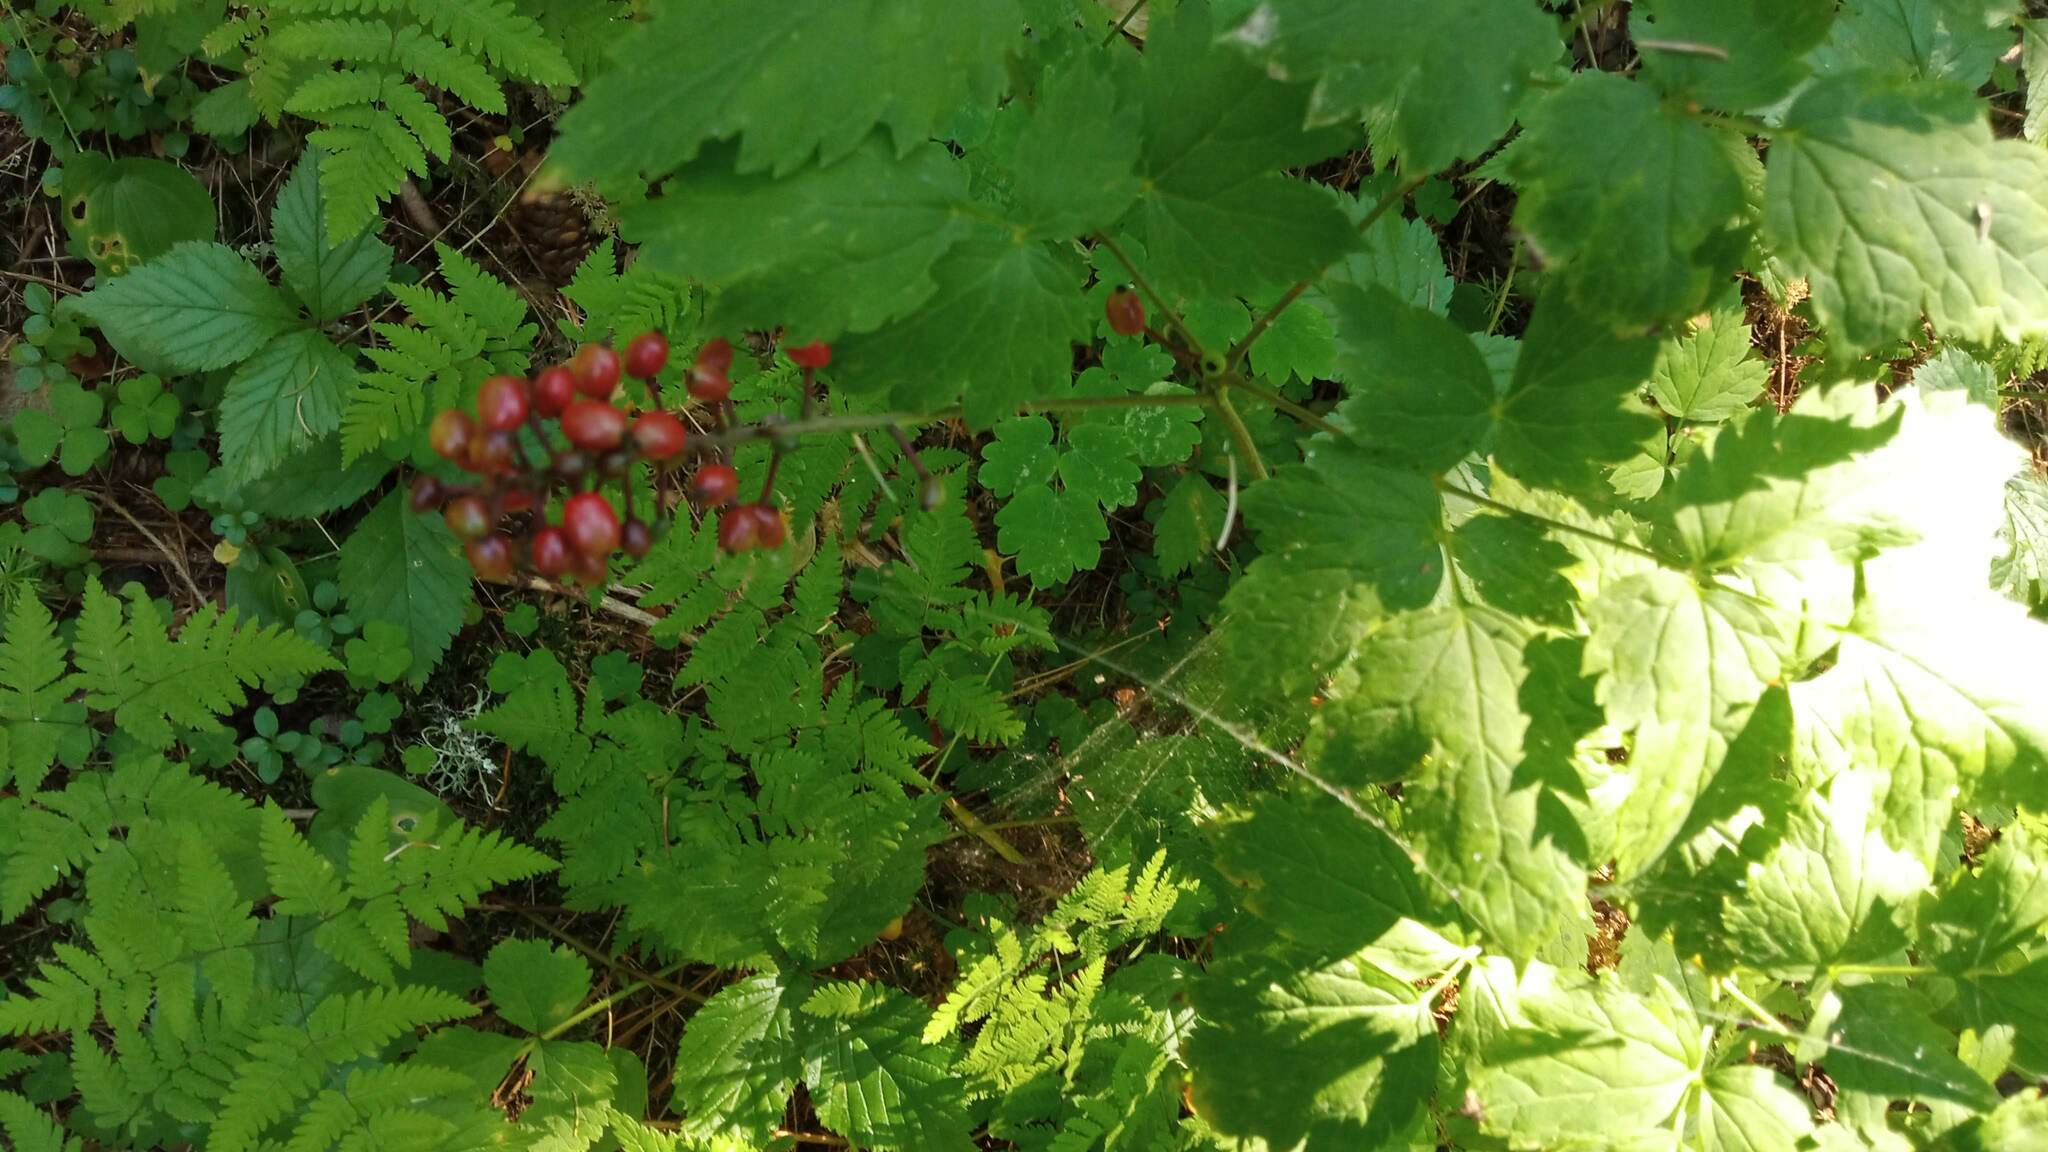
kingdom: Plantae
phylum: Tracheophyta
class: Magnoliopsida
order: Ranunculales
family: Ranunculaceae
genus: Actaea
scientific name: Actaea erythrocarpa
